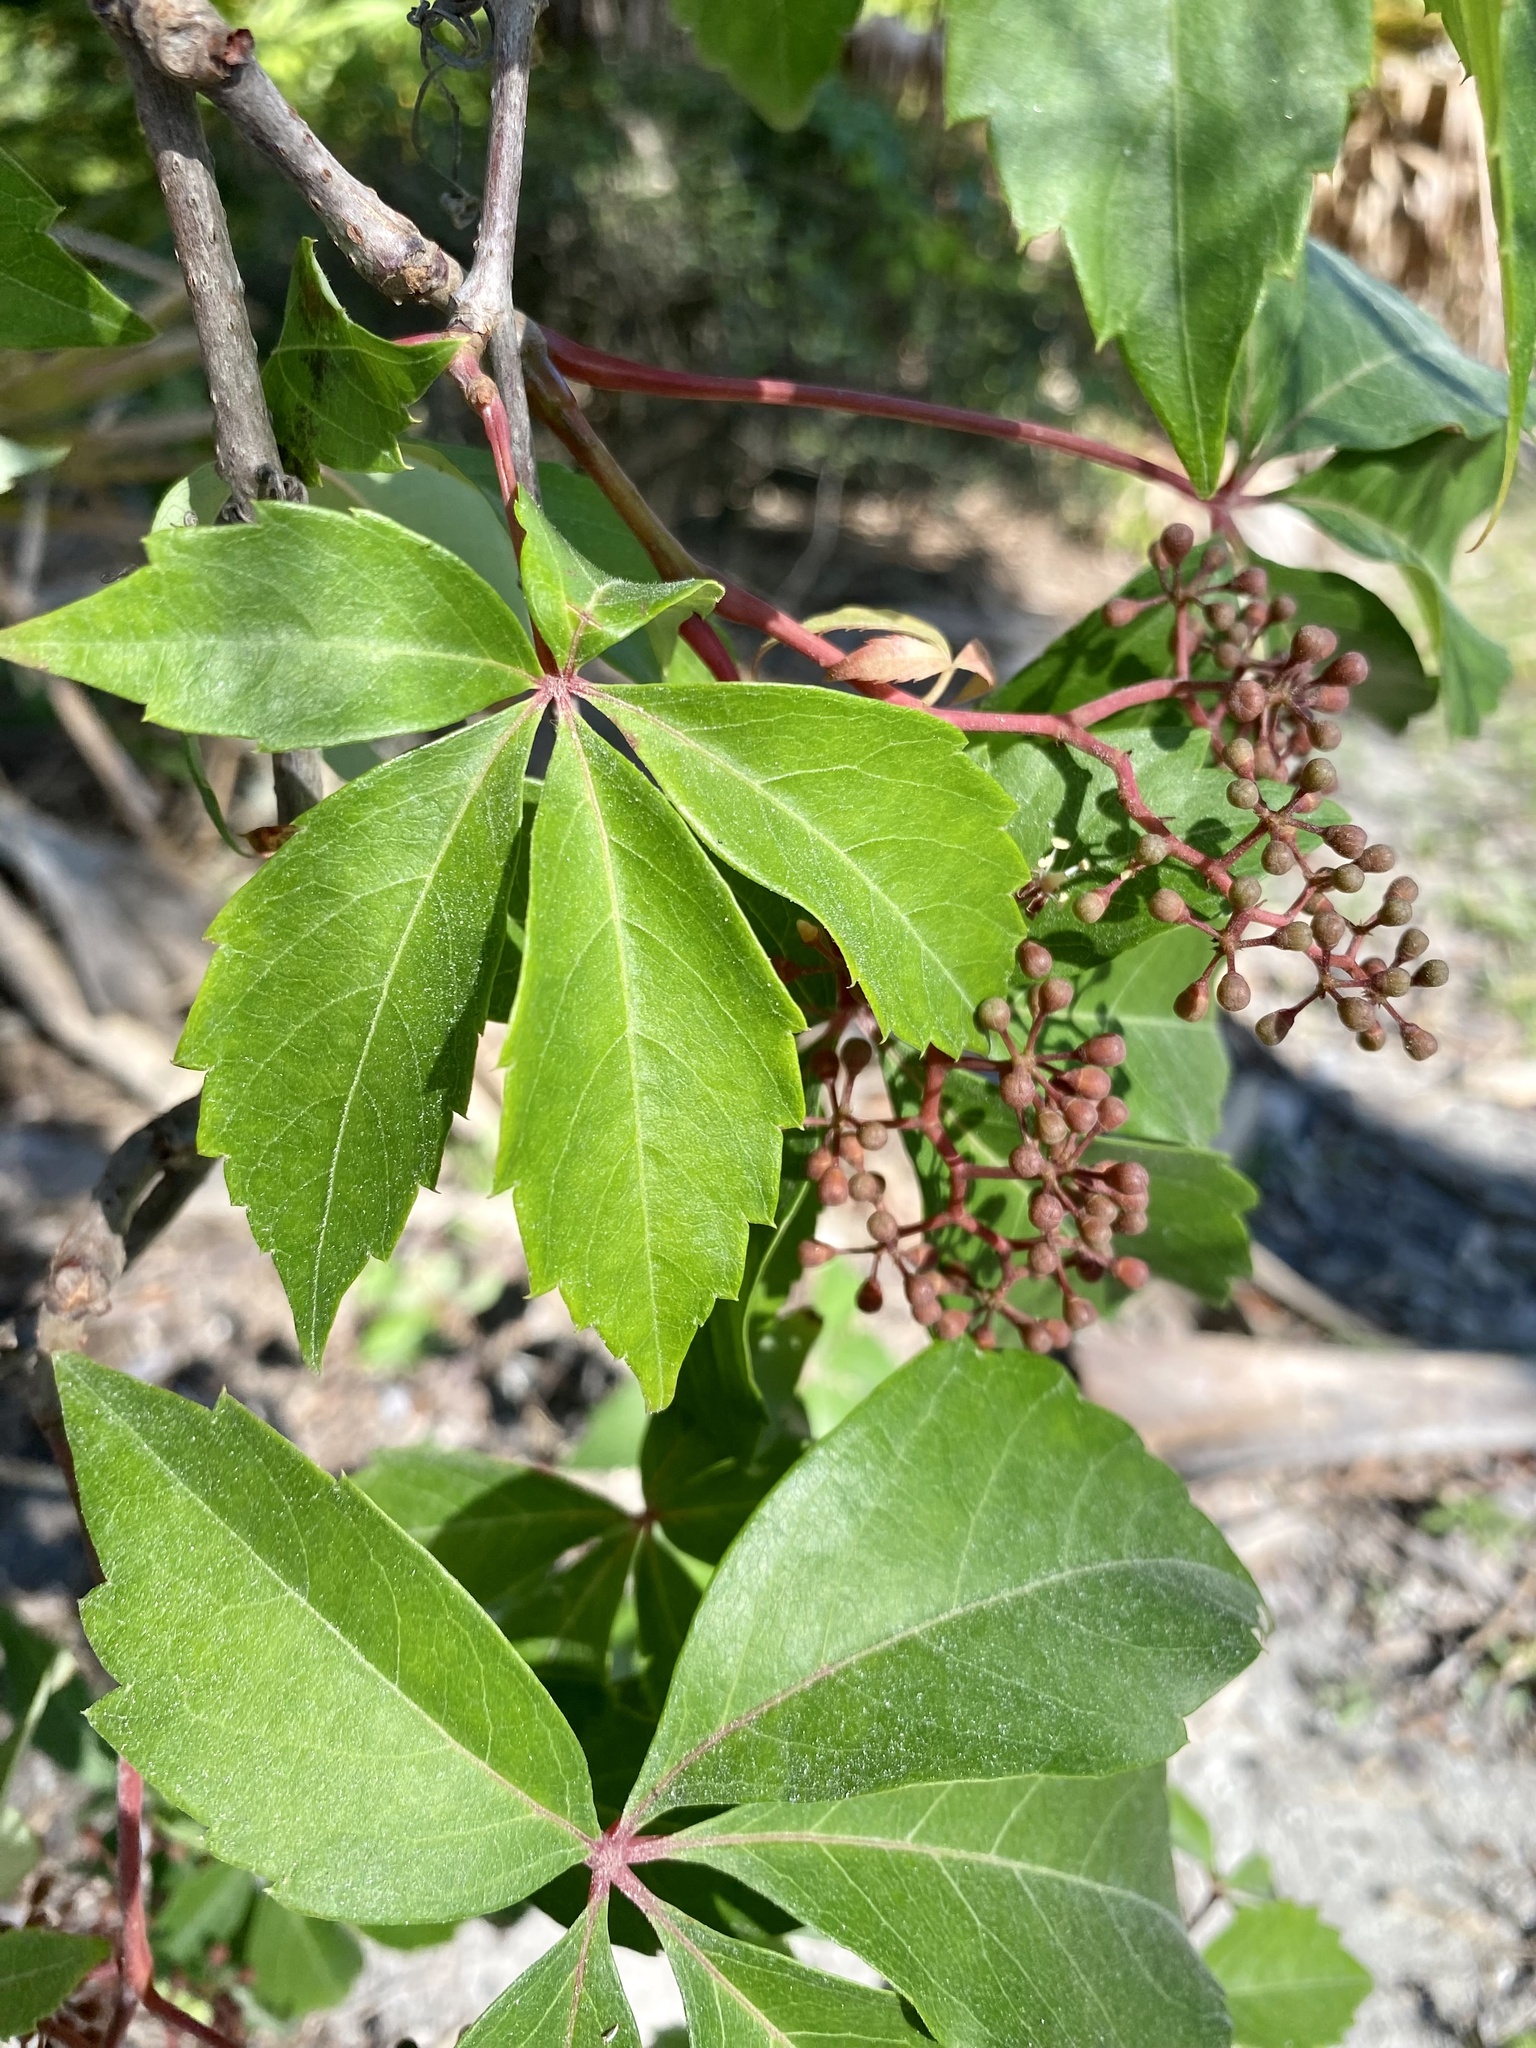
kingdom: Plantae
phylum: Tracheophyta
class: Magnoliopsida
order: Vitales
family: Vitaceae
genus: Parthenocissus
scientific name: Parthenocissus quinquefolia
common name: Virginia-creeper
